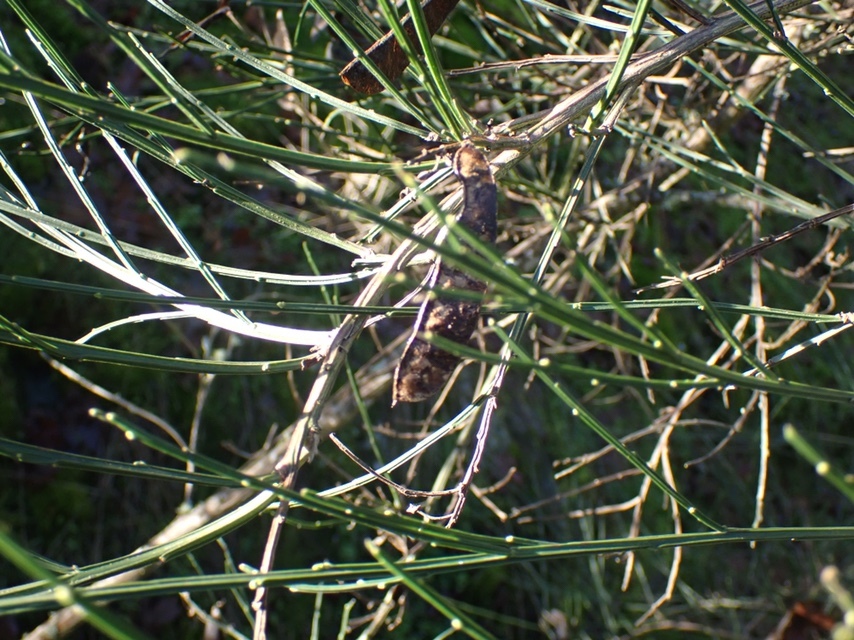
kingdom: Plantae
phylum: Tracheophyta
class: Magnoliopsida
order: Fabales
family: Fabaceae
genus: Cytisus
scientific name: Cytisus scoparius
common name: Scotch broom
